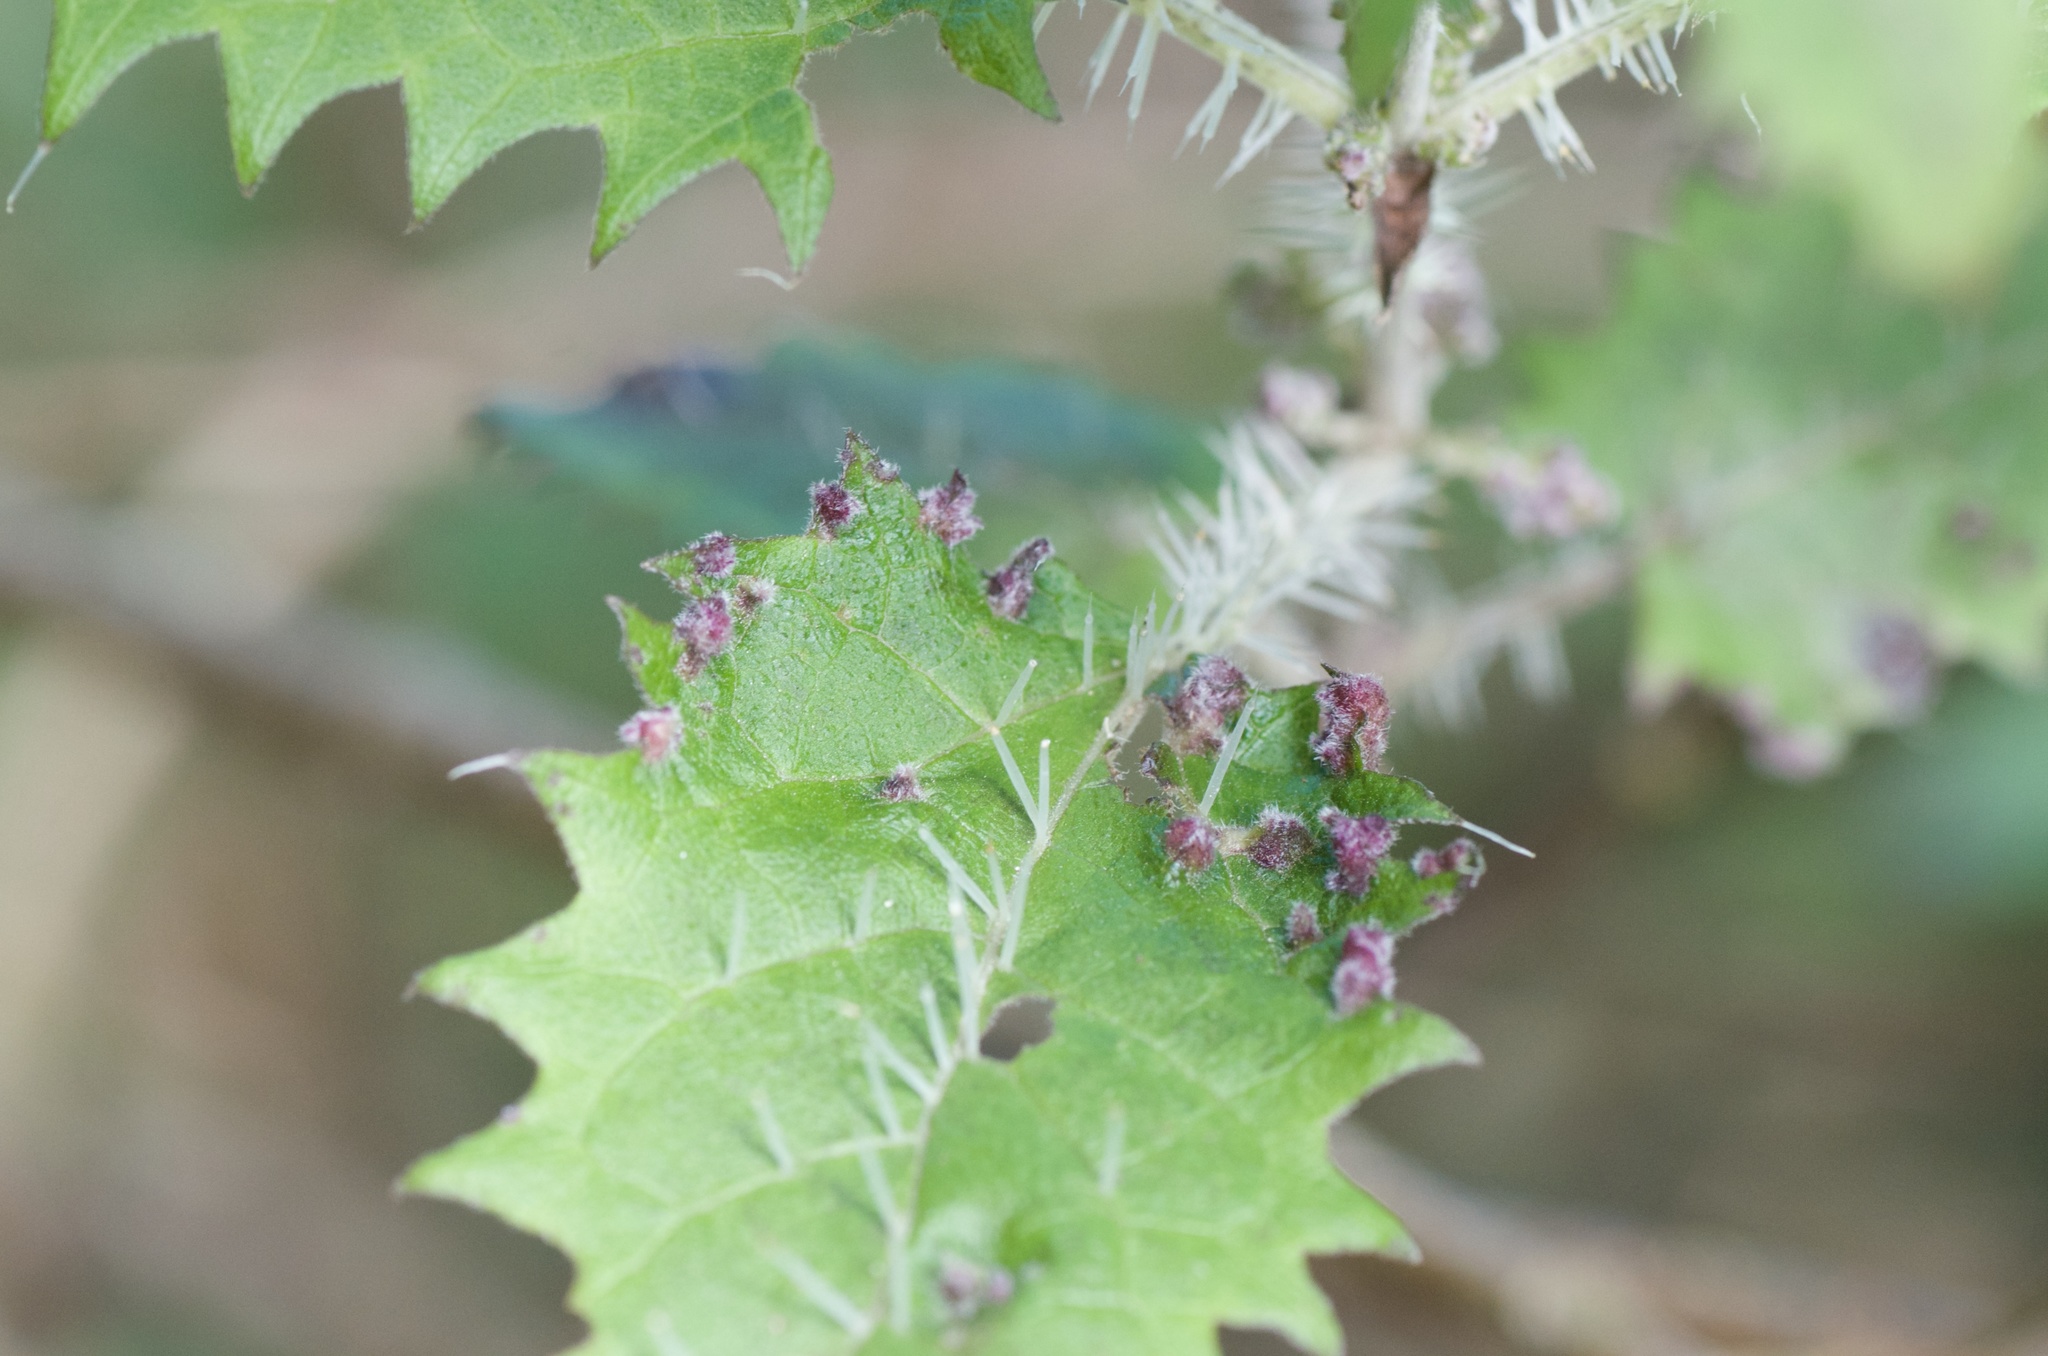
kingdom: Animalia
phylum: Arthropoda
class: Arachnida
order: Trombidiformes
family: Eriophyidae
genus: Vittacus
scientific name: Vittacus
